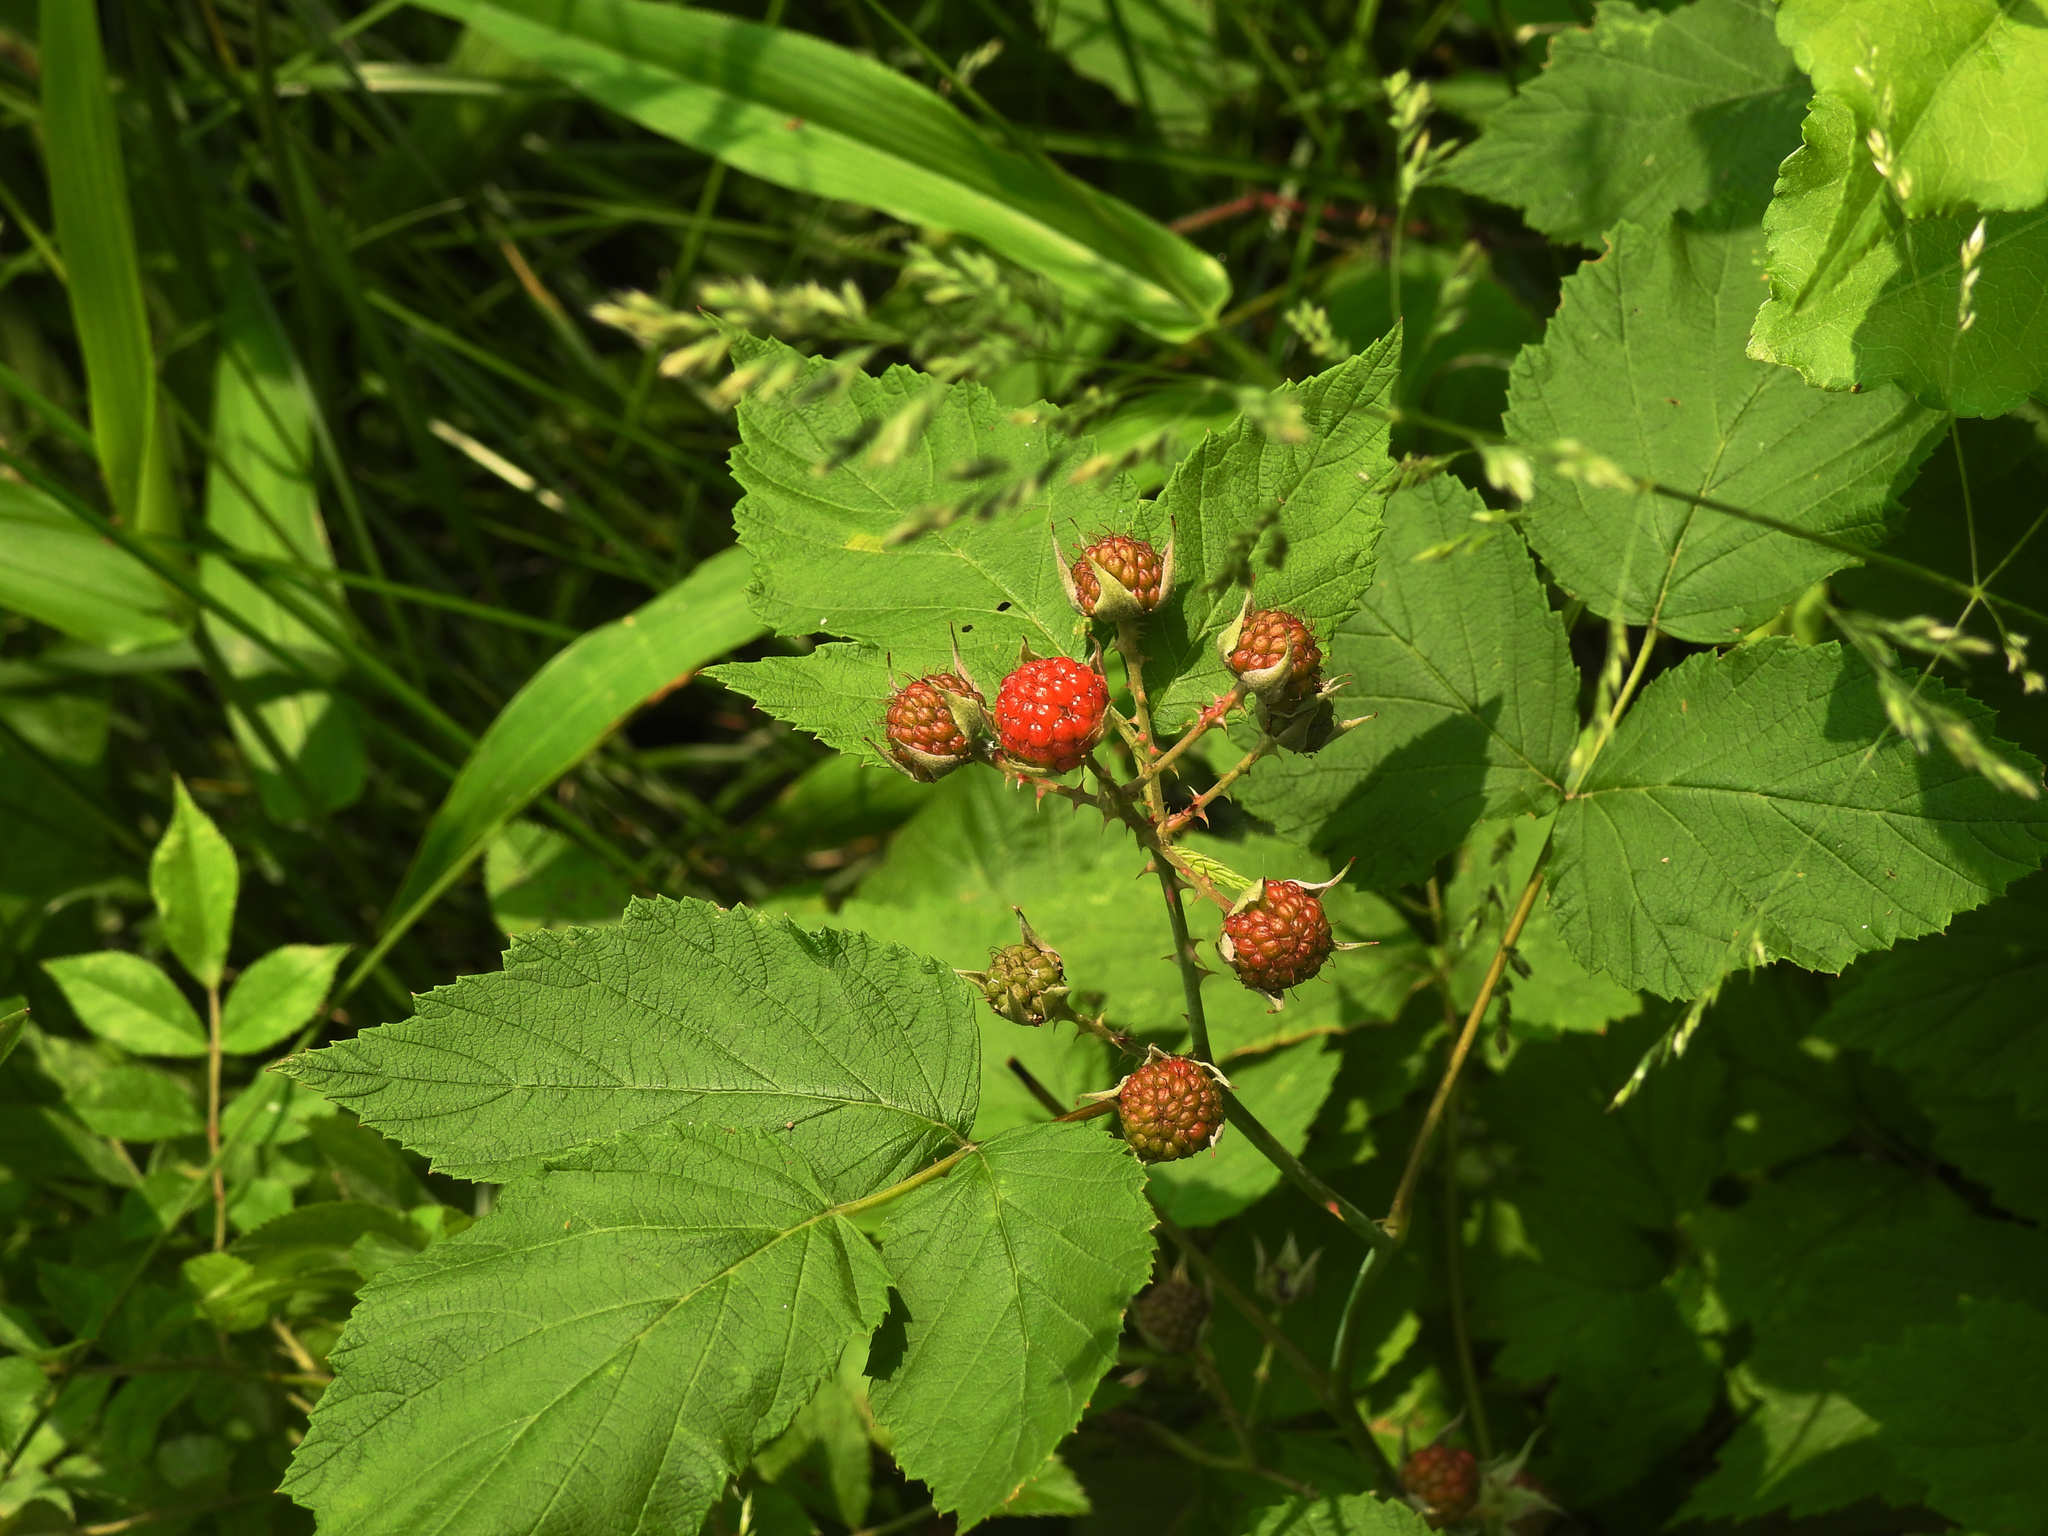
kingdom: Plantae
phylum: Tracheophyta
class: Magnoliopsida
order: Rosales
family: Rosaceae
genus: Rubus
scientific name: Rubus occidentalis
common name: Black raspberry
